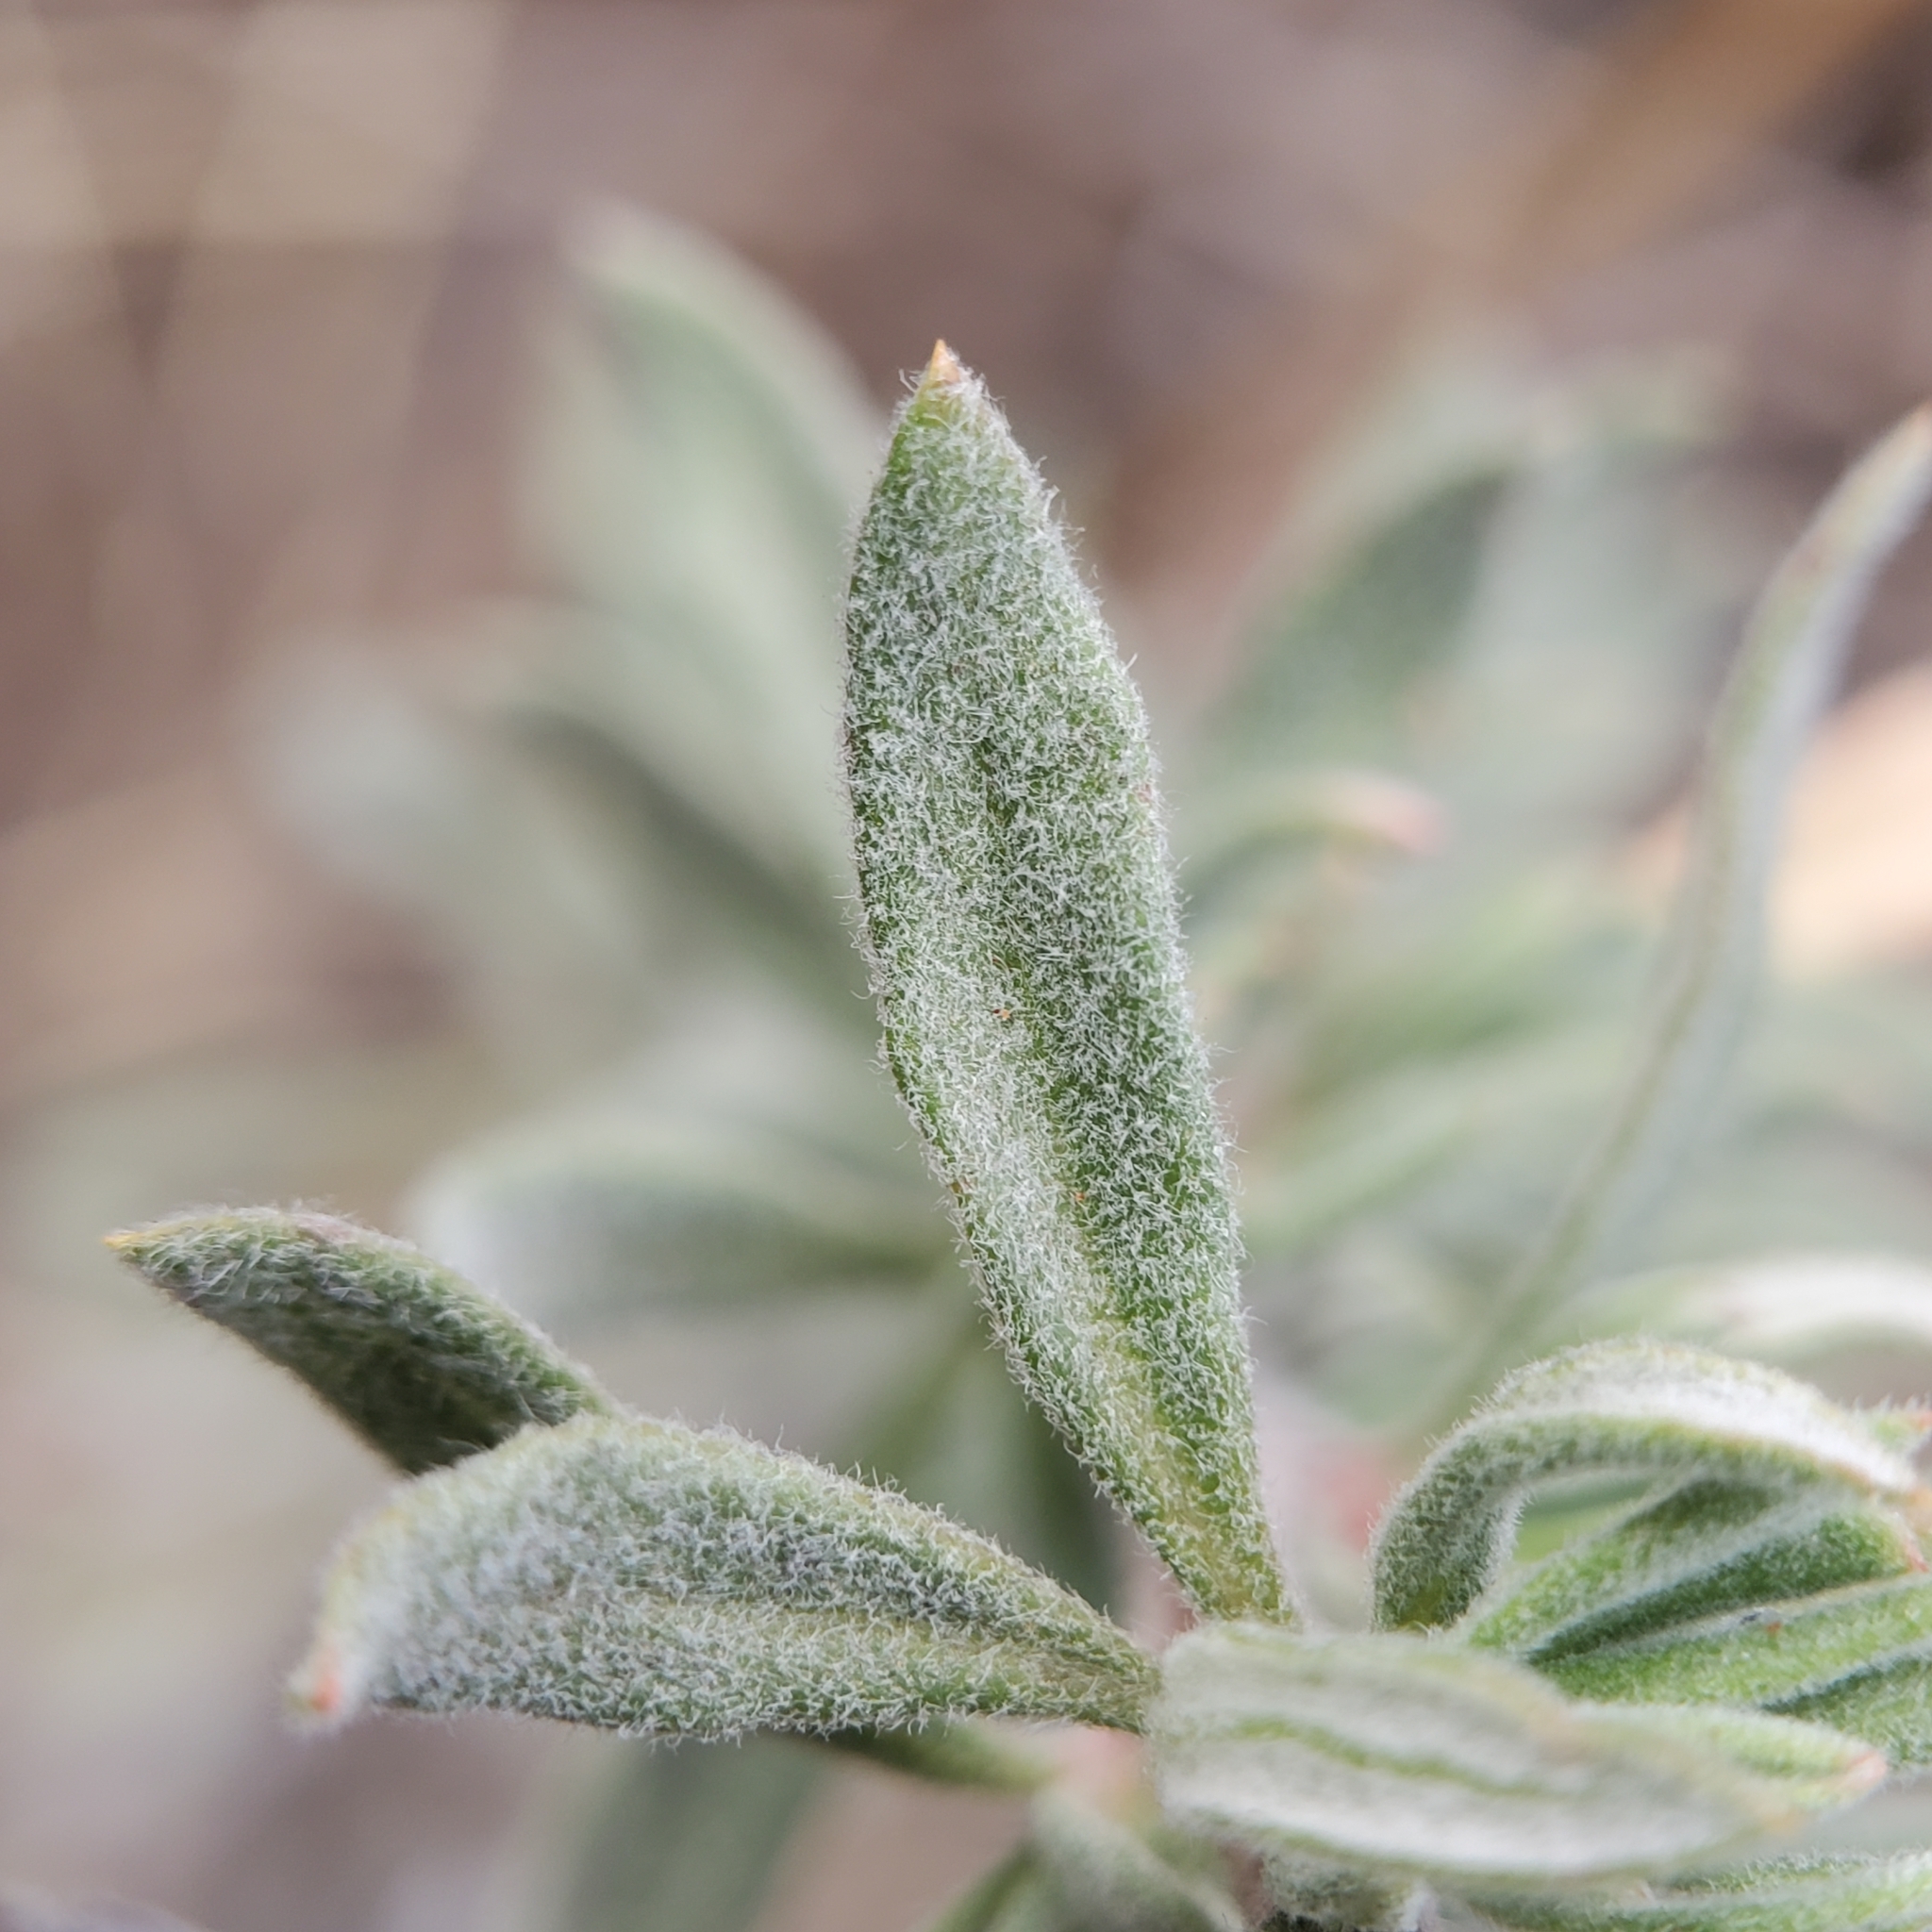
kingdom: Plantae
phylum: Tracheophyta
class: Magnoliopsida
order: Caryophyllales
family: Polygonaceae
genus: Eriogonum
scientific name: Eriogonum fasciculatum
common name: California wild buckwheat
